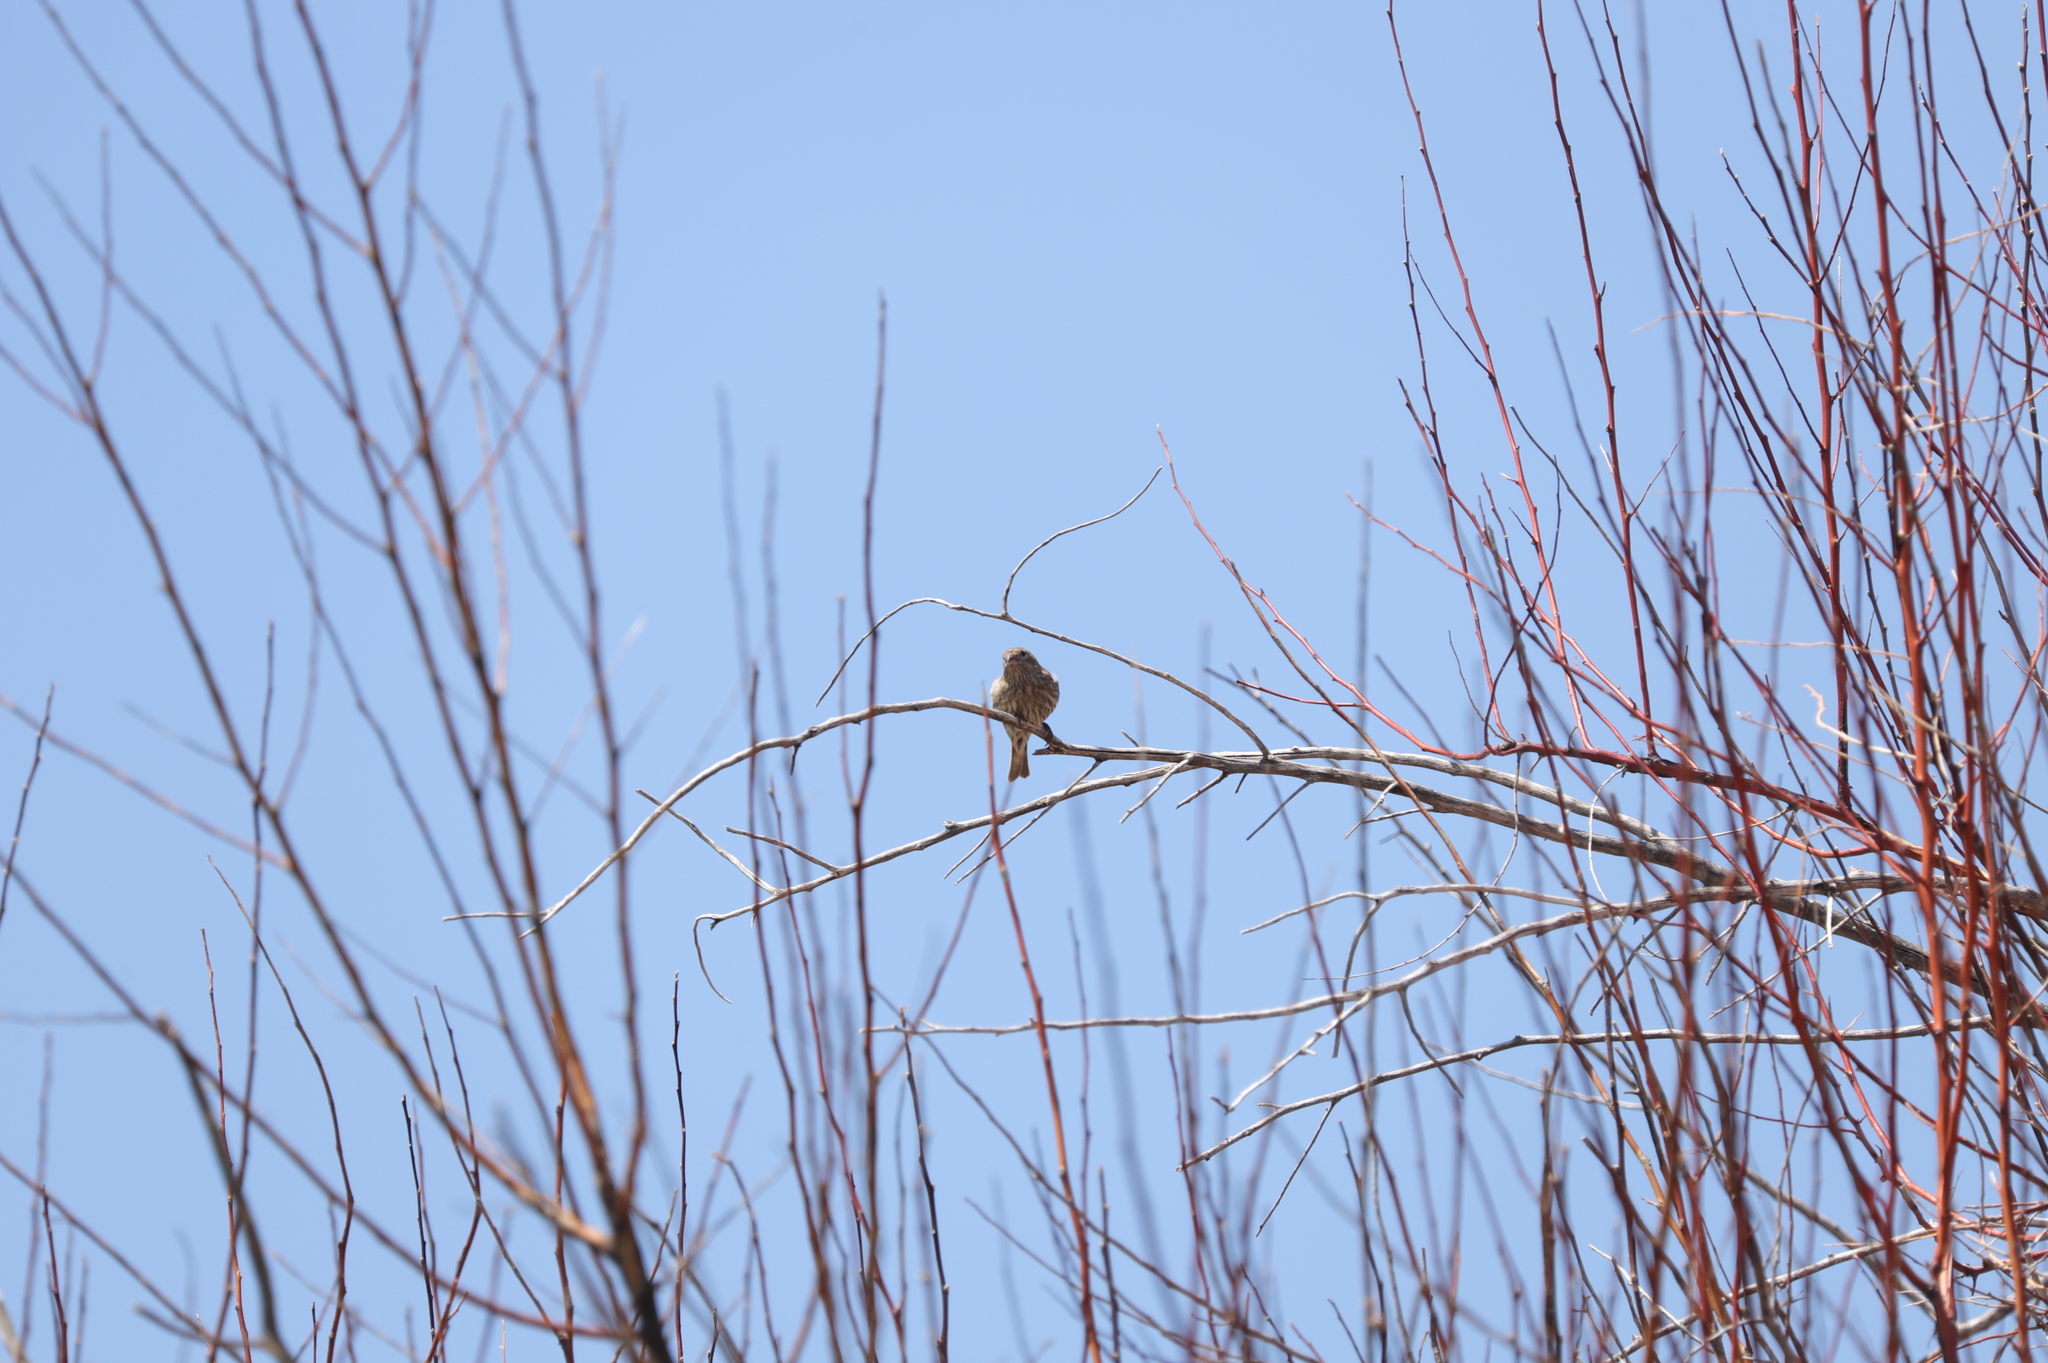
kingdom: Animalia
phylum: Chordata
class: Aves
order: Passeriformes
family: Fringillidae
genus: Haemorhous
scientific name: Haemorhous mexicanus
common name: House finch
